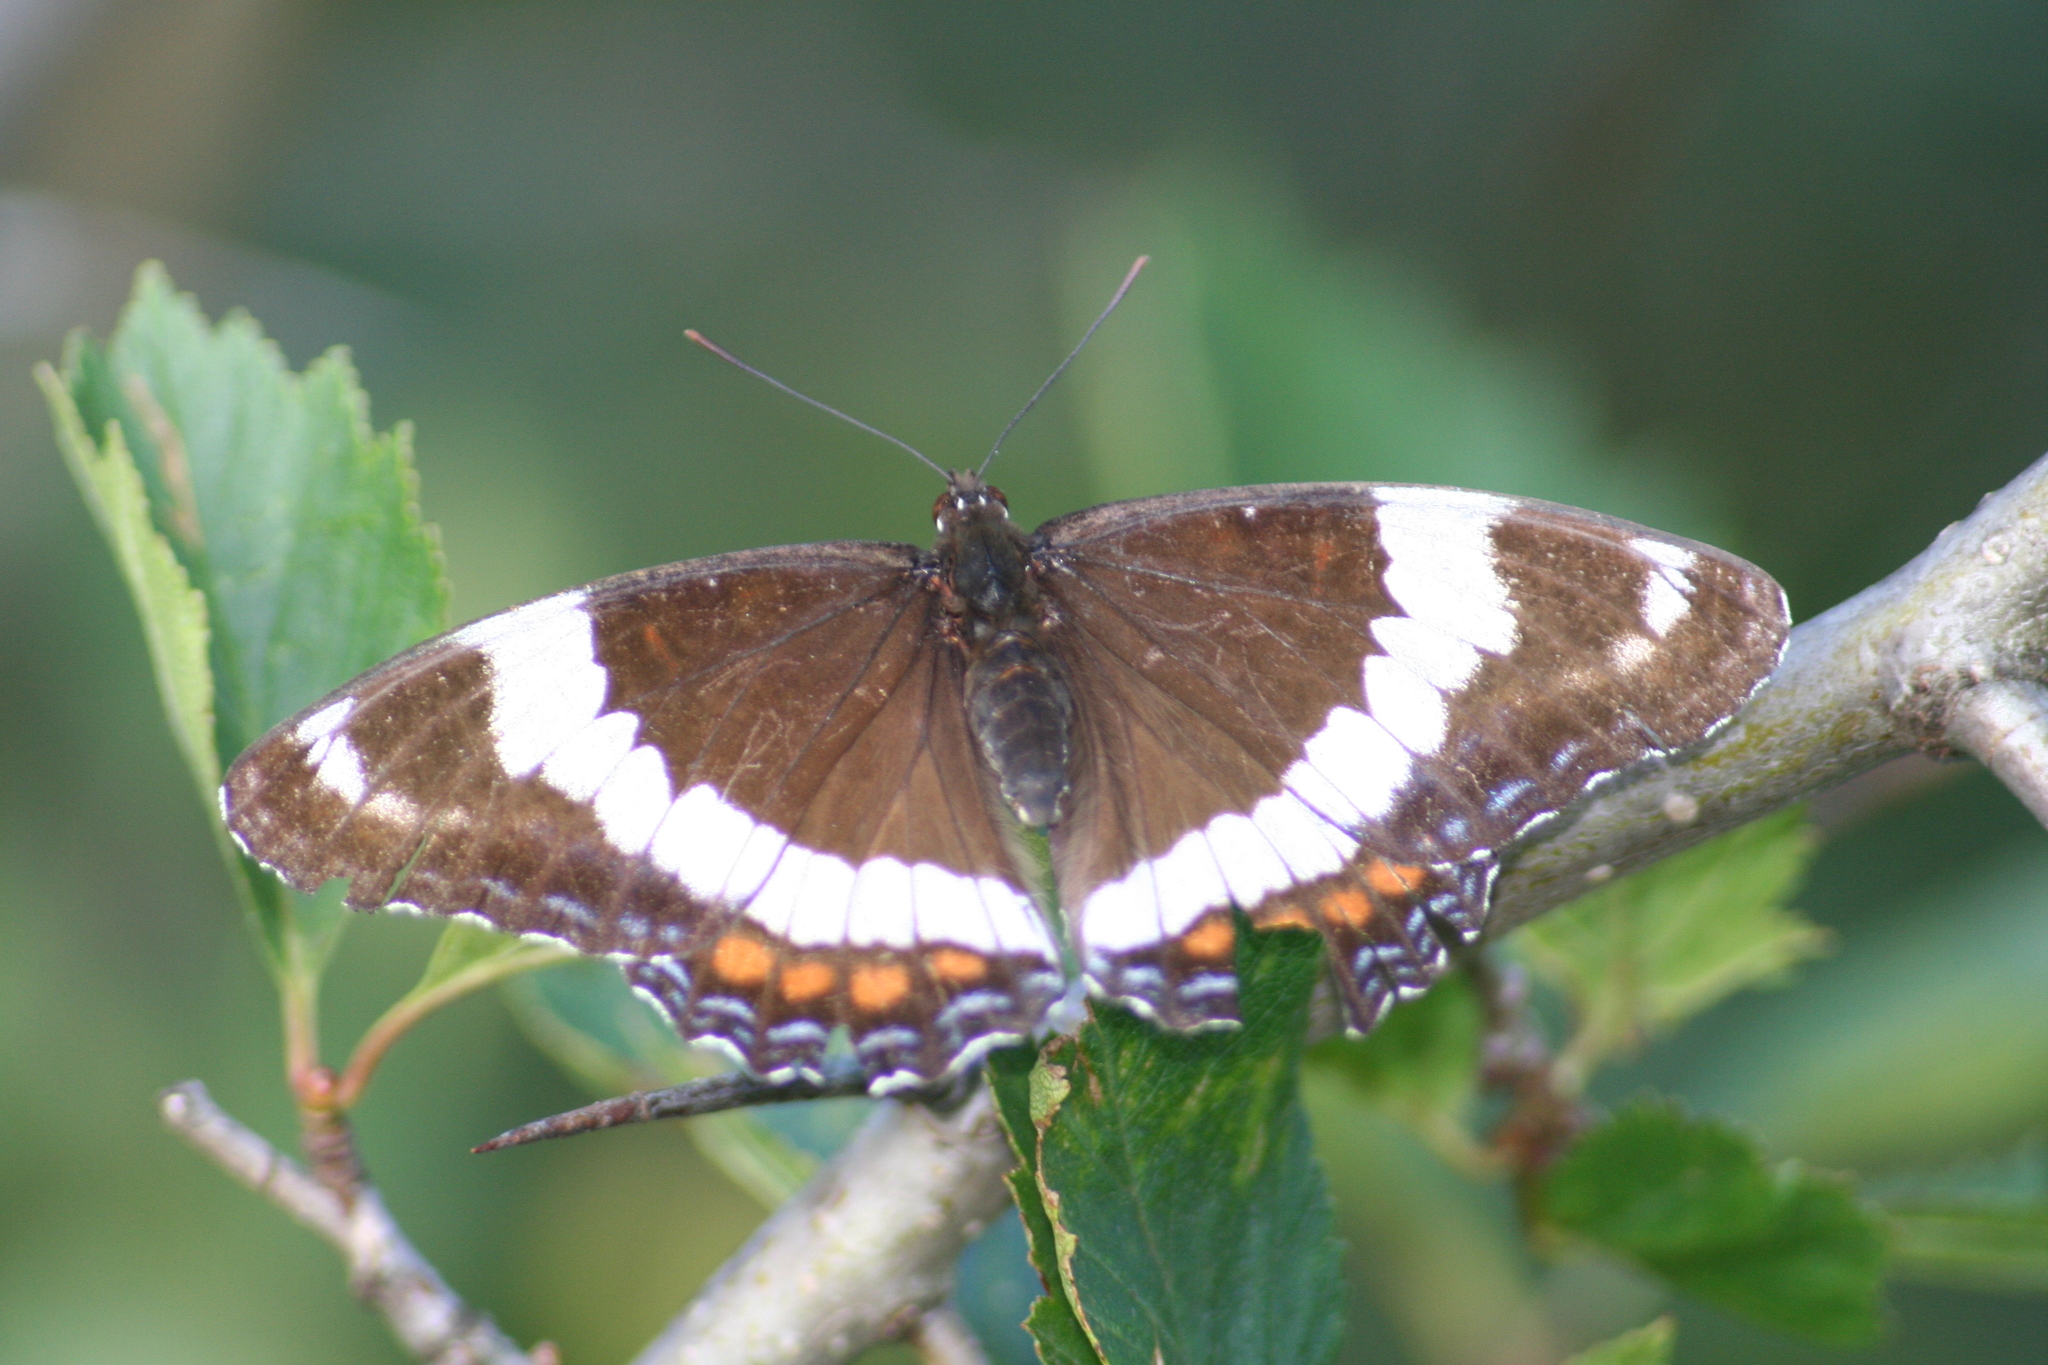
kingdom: Animalia
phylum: Arthropoda
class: Insecta
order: Lepidoptera
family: Nymphalidae
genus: Limenitis
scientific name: Limenitis arthemis
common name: Red-spotted admiral
